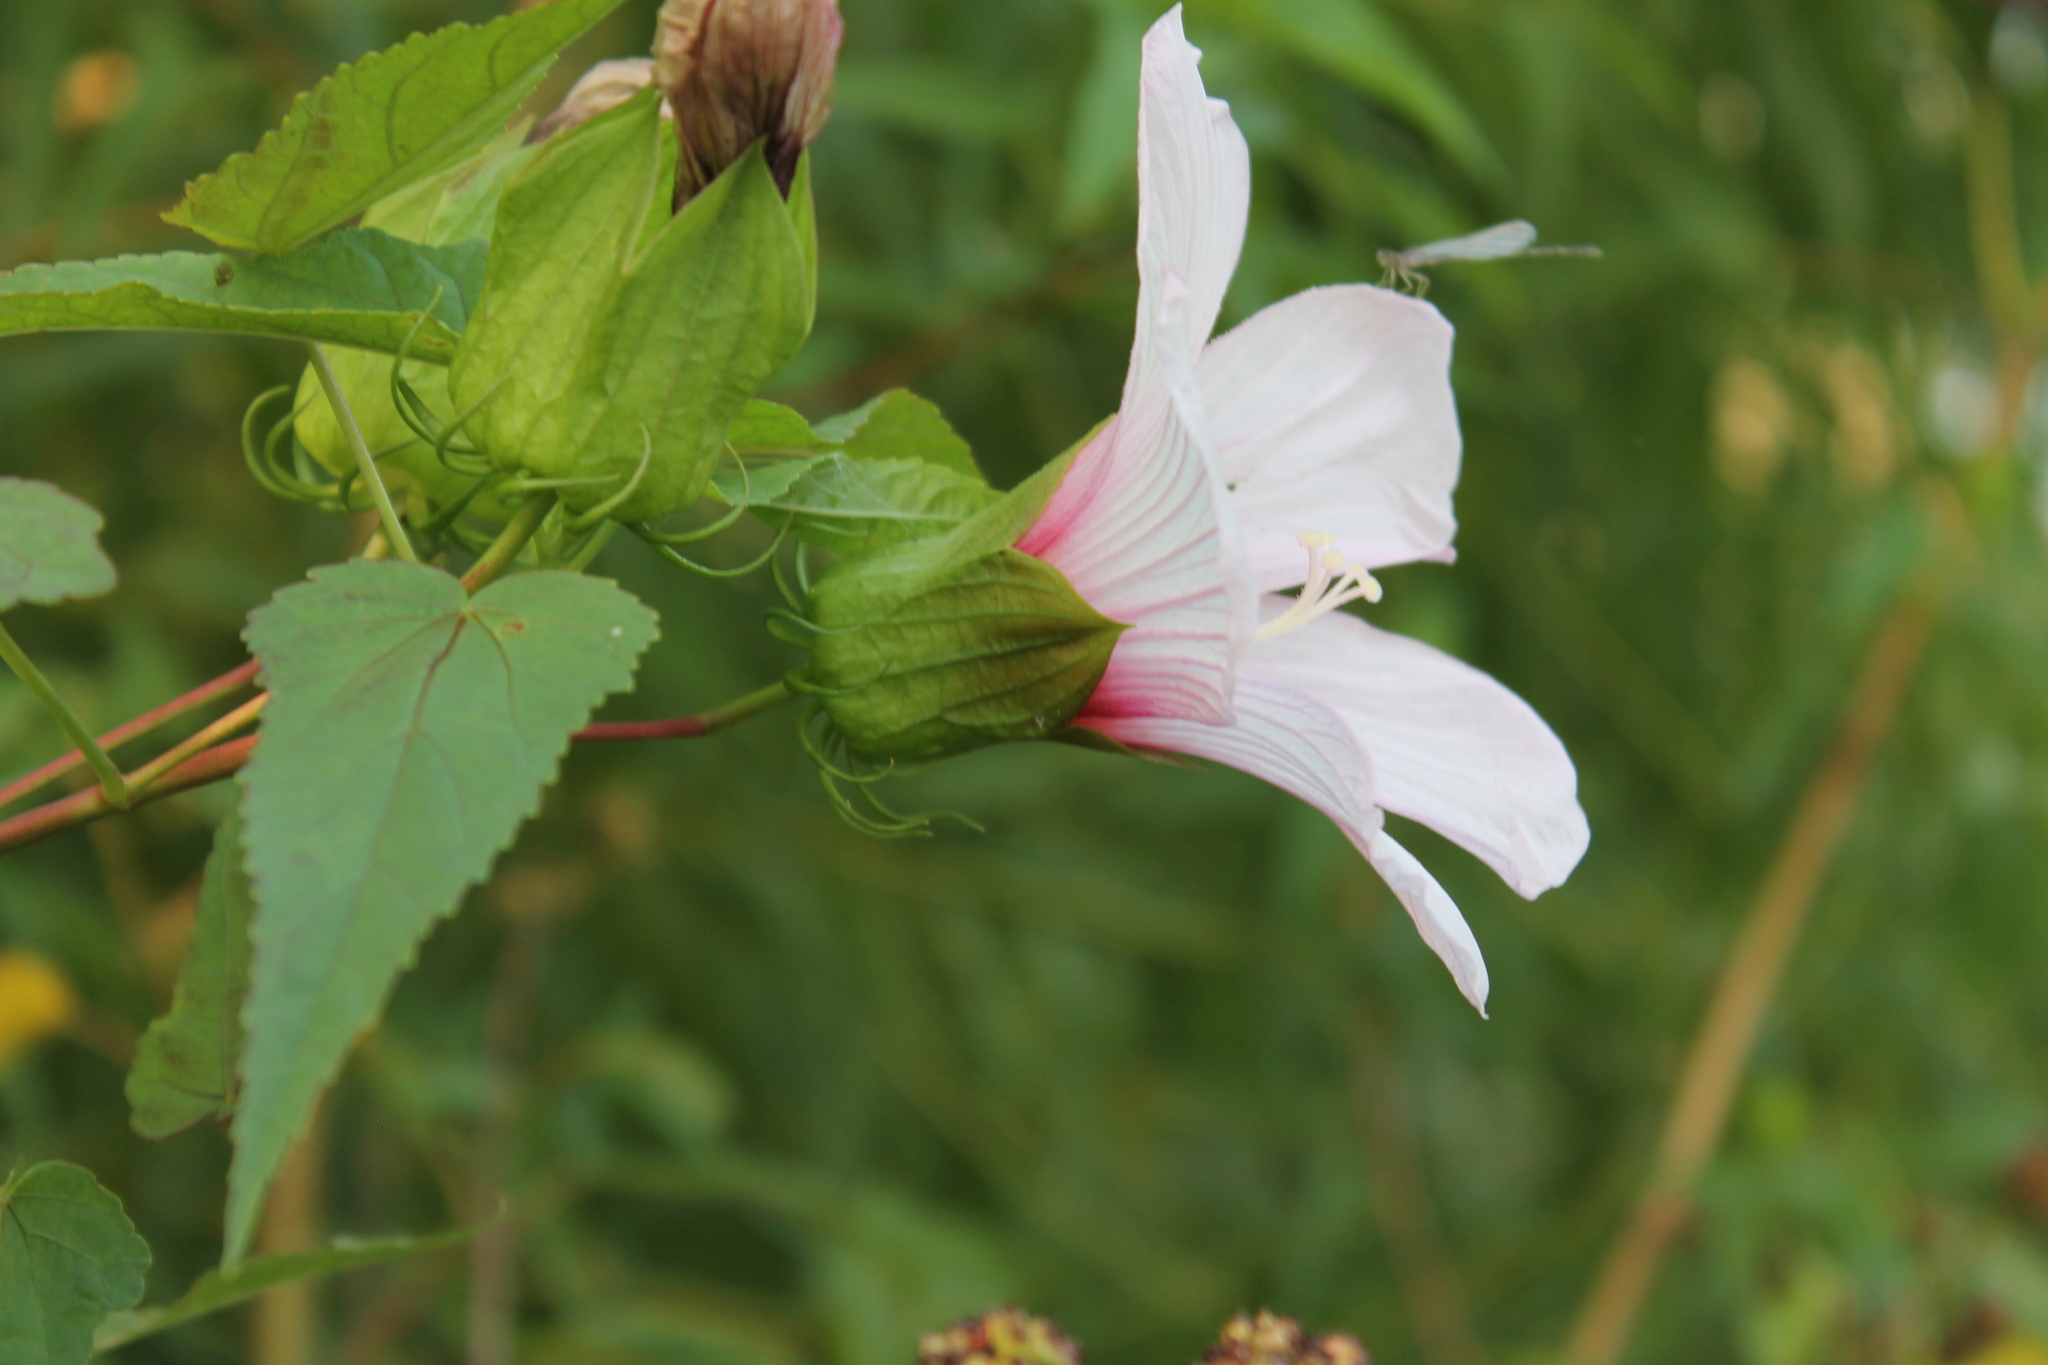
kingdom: Plantae
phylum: Tracheophyta
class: Magnoliopsida
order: Malvales
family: Malvaceae
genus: Hibiscus
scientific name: Hibiscus laevis
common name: Scarlet rose-mallow
